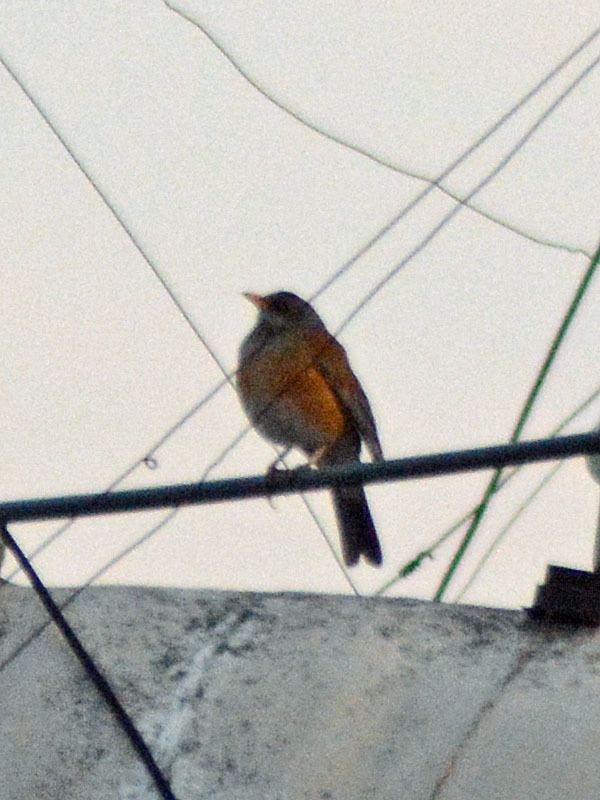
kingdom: Animalia
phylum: Chordata
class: Aves
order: Passeriformes
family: Turdidae
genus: Turdus
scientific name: Turdus rufopalliatus
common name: Rufous-backed robin
